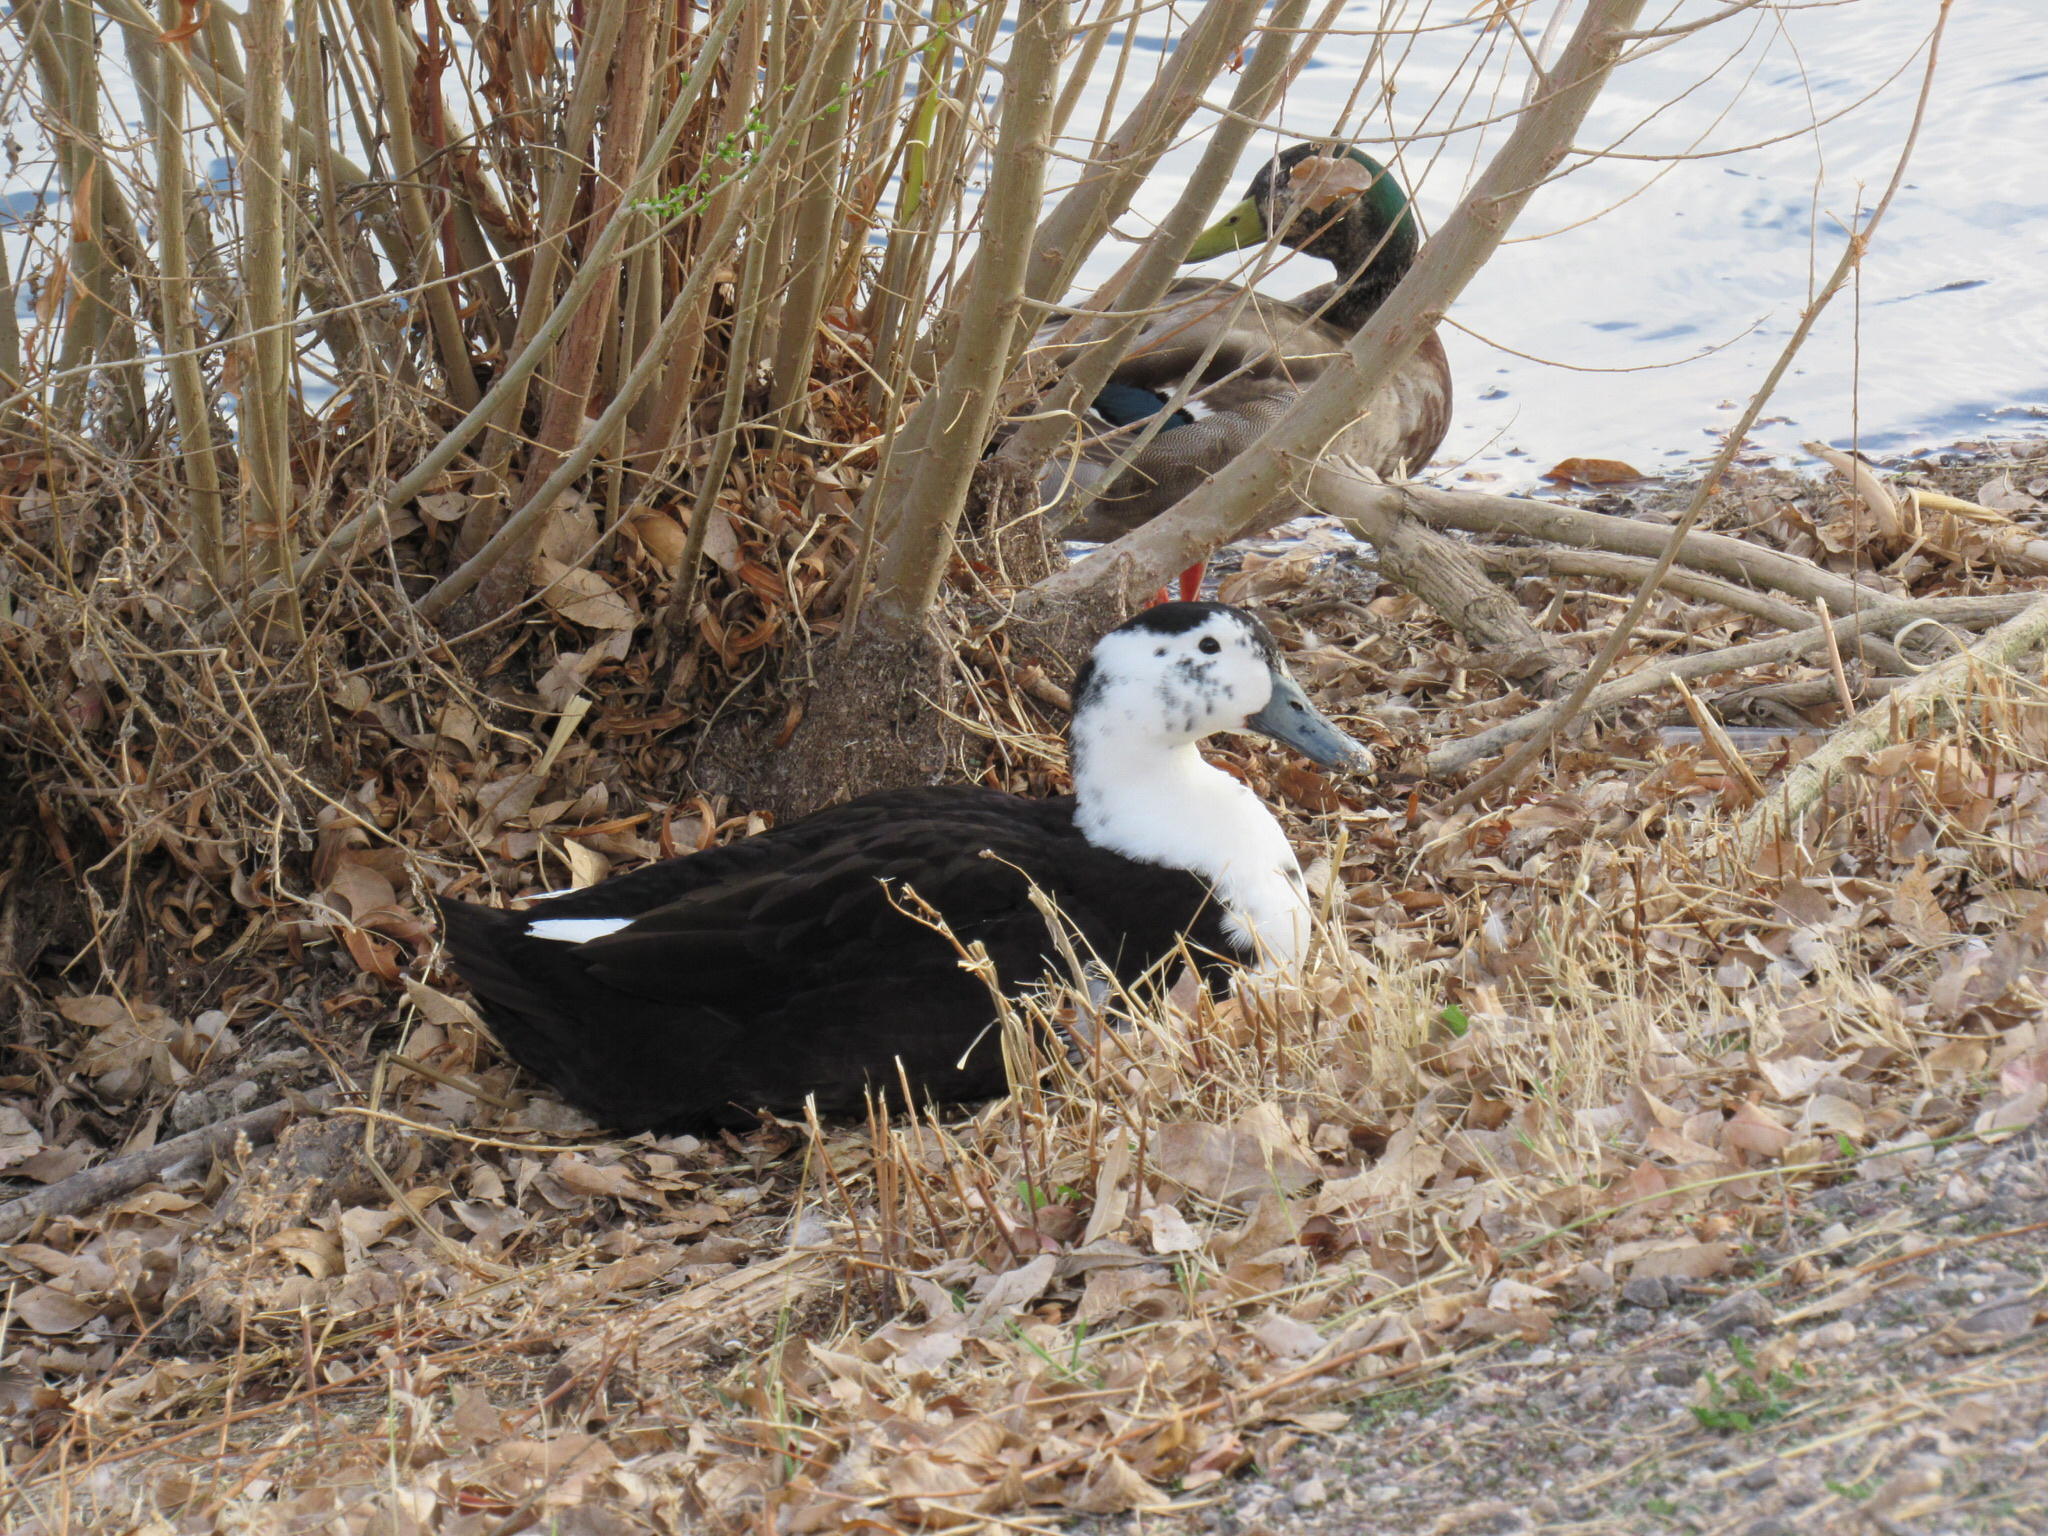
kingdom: Animalia
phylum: Chordata
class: Aves
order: Anseriformes
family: Anatidae
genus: Anas
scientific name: Anas platyrhynchos
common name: Mallard
